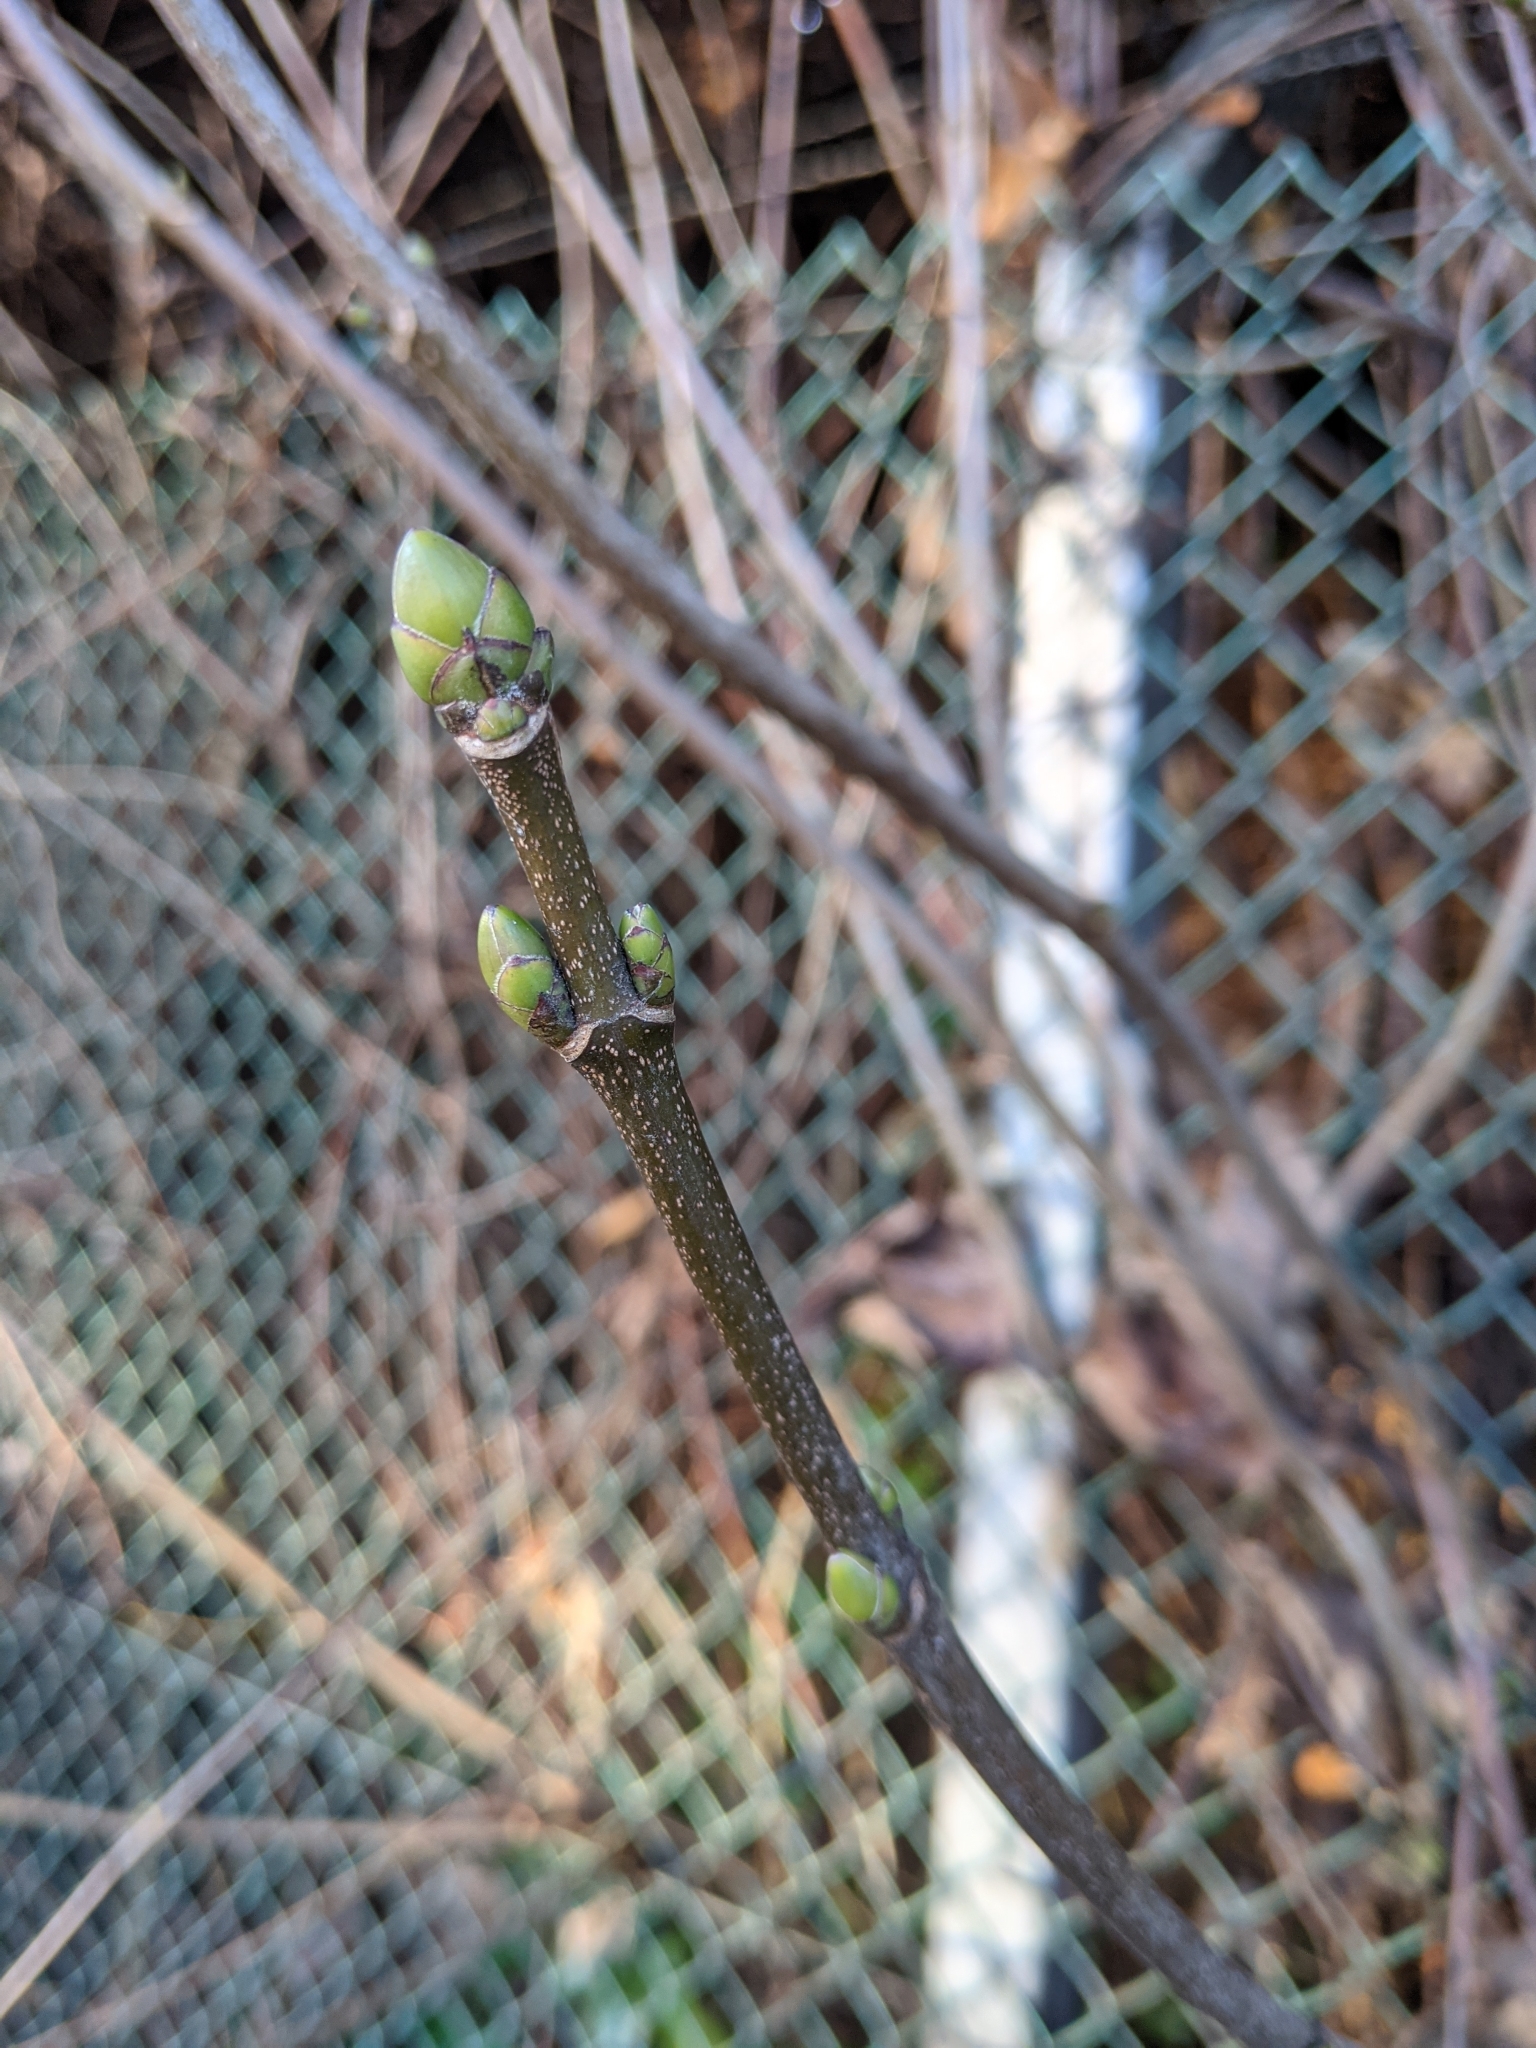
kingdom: Plantae
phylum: Tracheophyta
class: Magnoliopsida
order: Sapindales
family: Sapindaceae
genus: Acer
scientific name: Acer pseudoplatanus
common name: Sycamore
